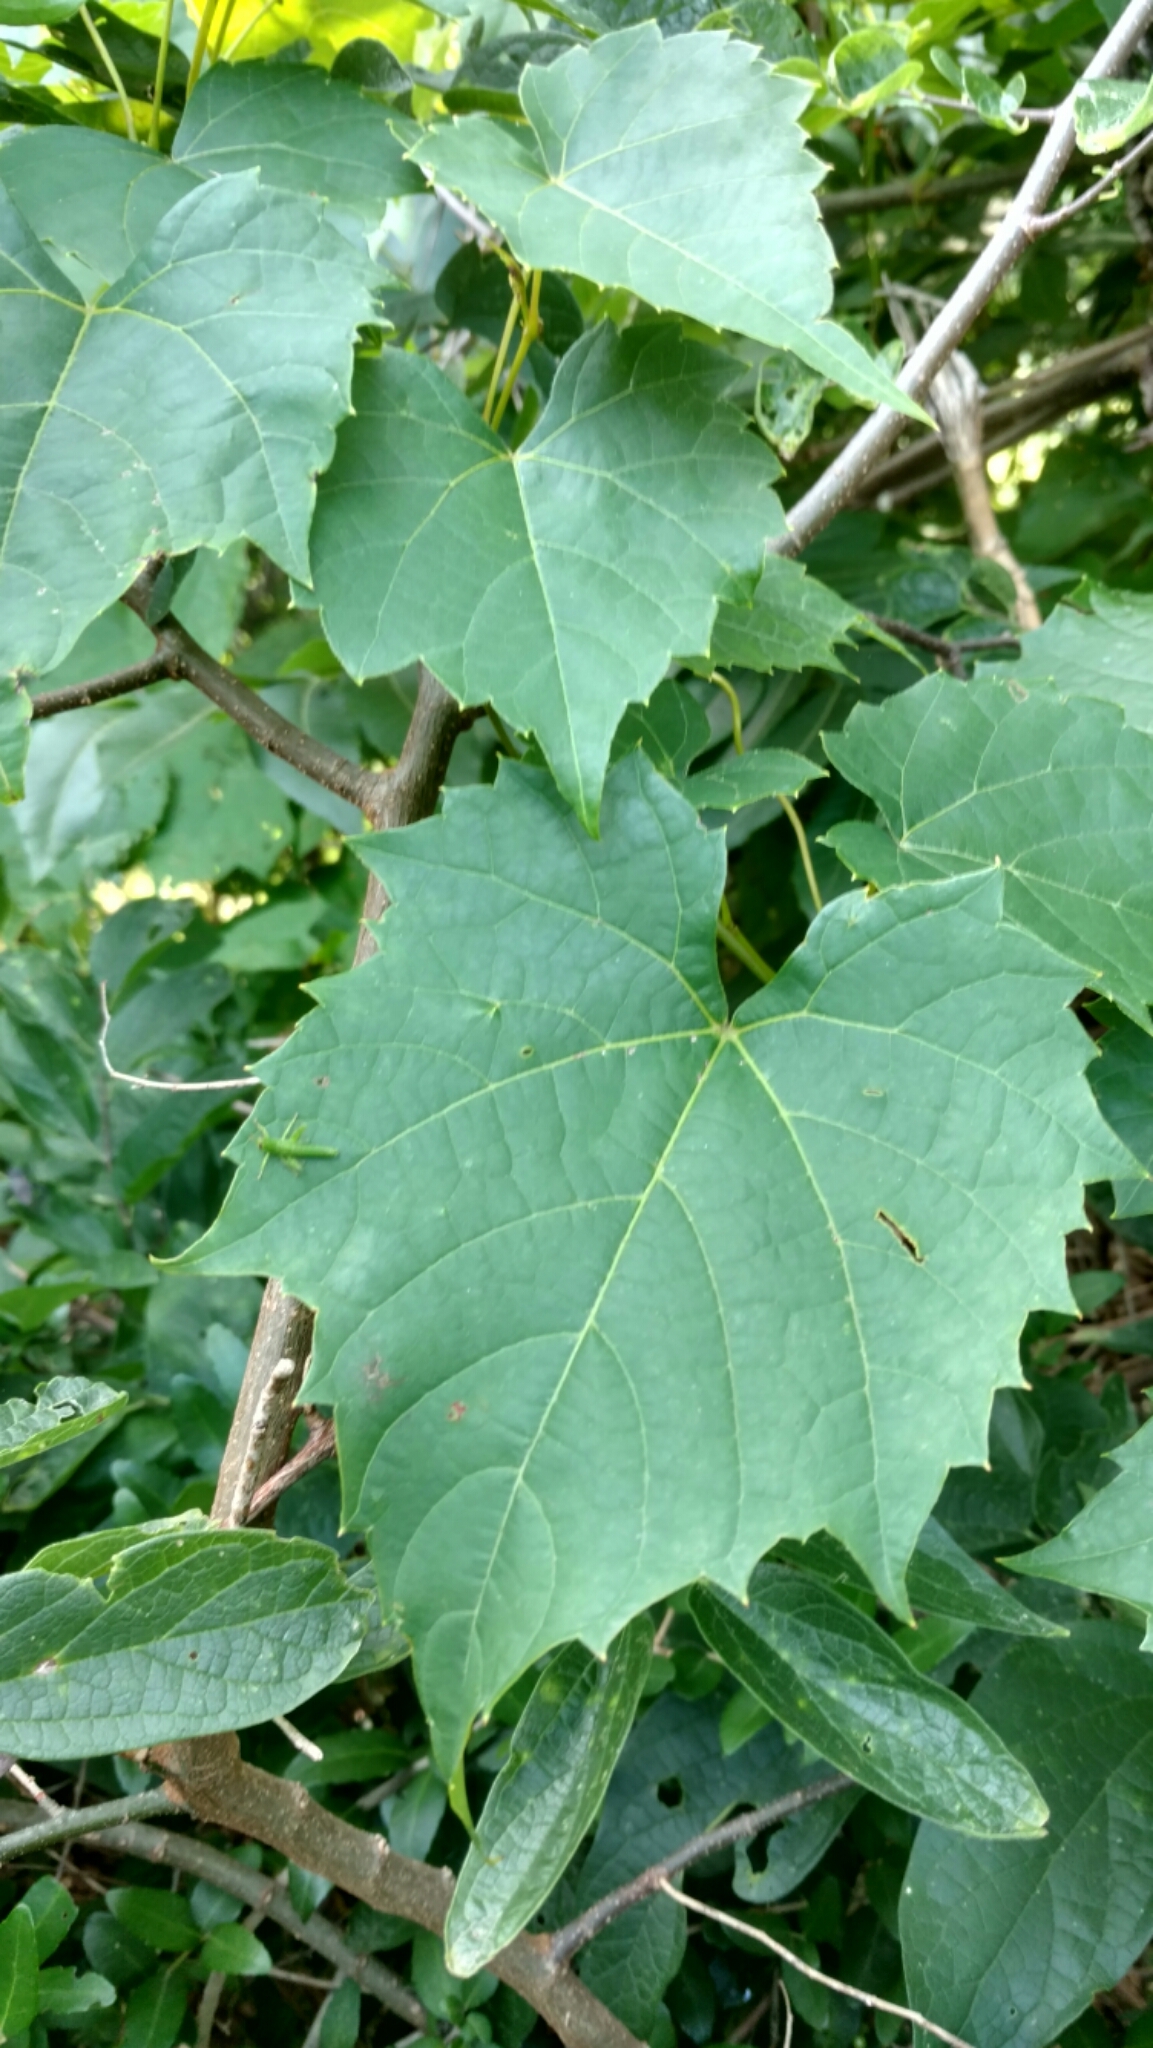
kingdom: Plantae
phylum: Tracheophyta
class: Magnoliopsida
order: Vitales
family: Vitaceae
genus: Vitis
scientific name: Vitis vulpina
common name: Frost grape
